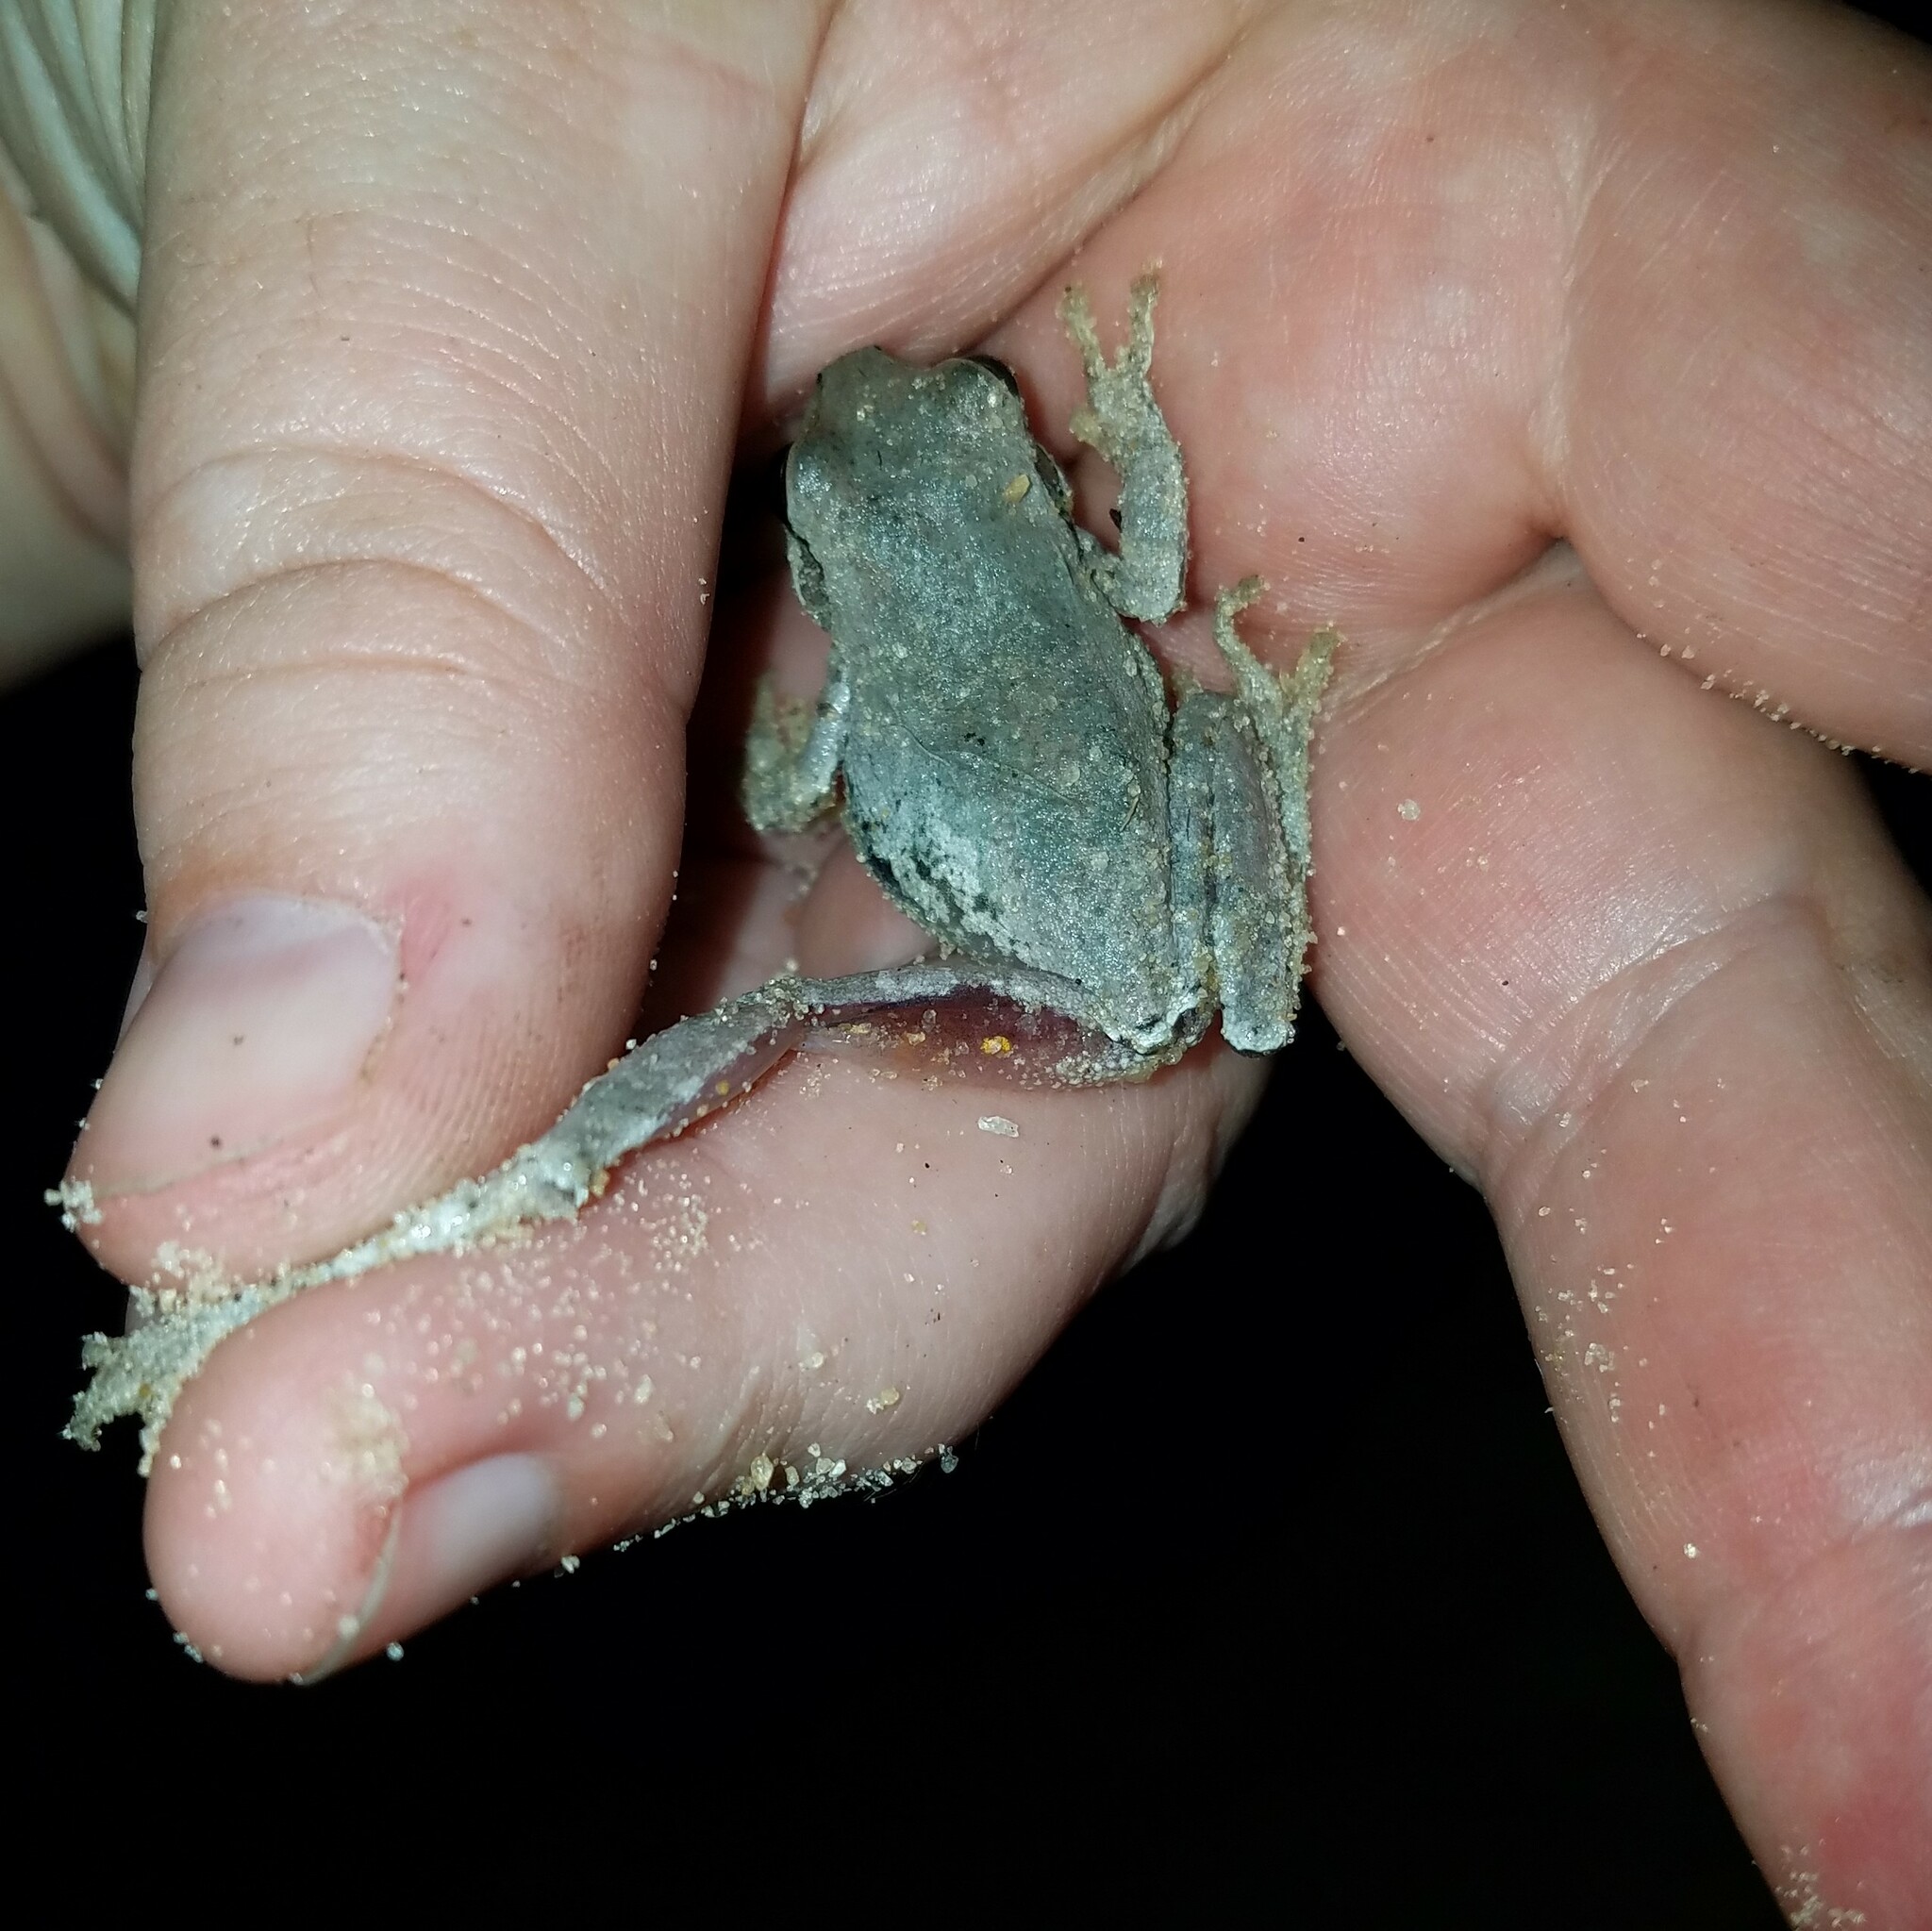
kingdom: Animalia
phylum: Chordata
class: Amphibia
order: Anura
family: Hylidae
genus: Hyla
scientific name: Hyla femoralis
